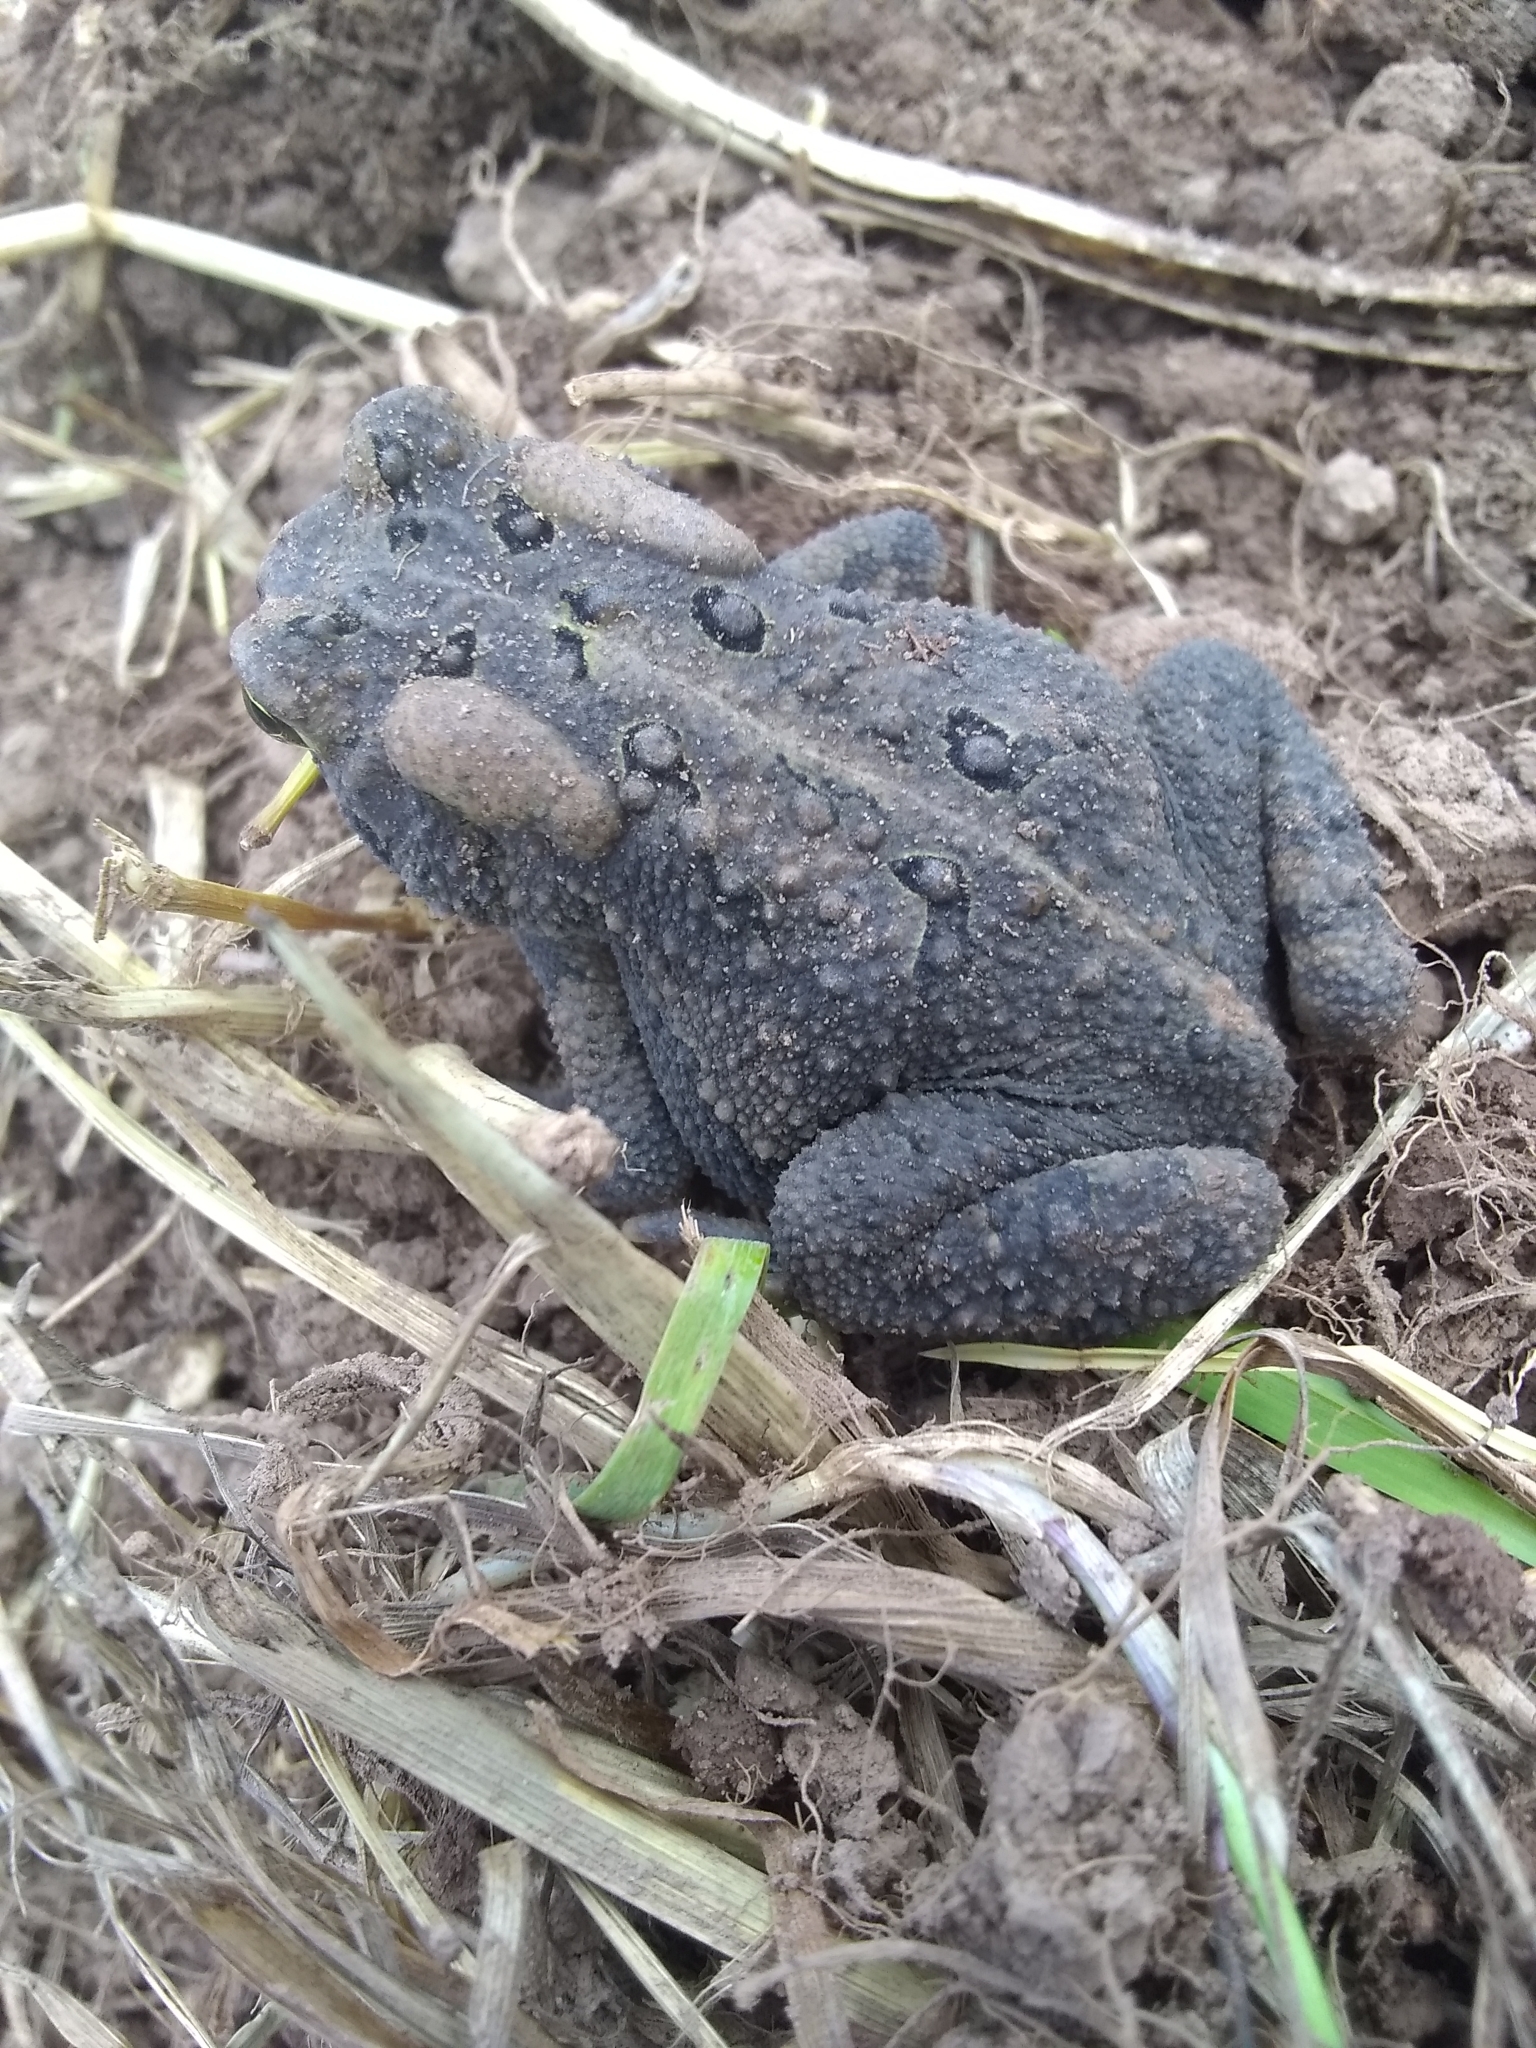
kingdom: Animalia
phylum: Chordata
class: Amphibia
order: Anura
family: Bufonidae
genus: Anaxyrus
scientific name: Anaxyrus americanus
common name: American toad
